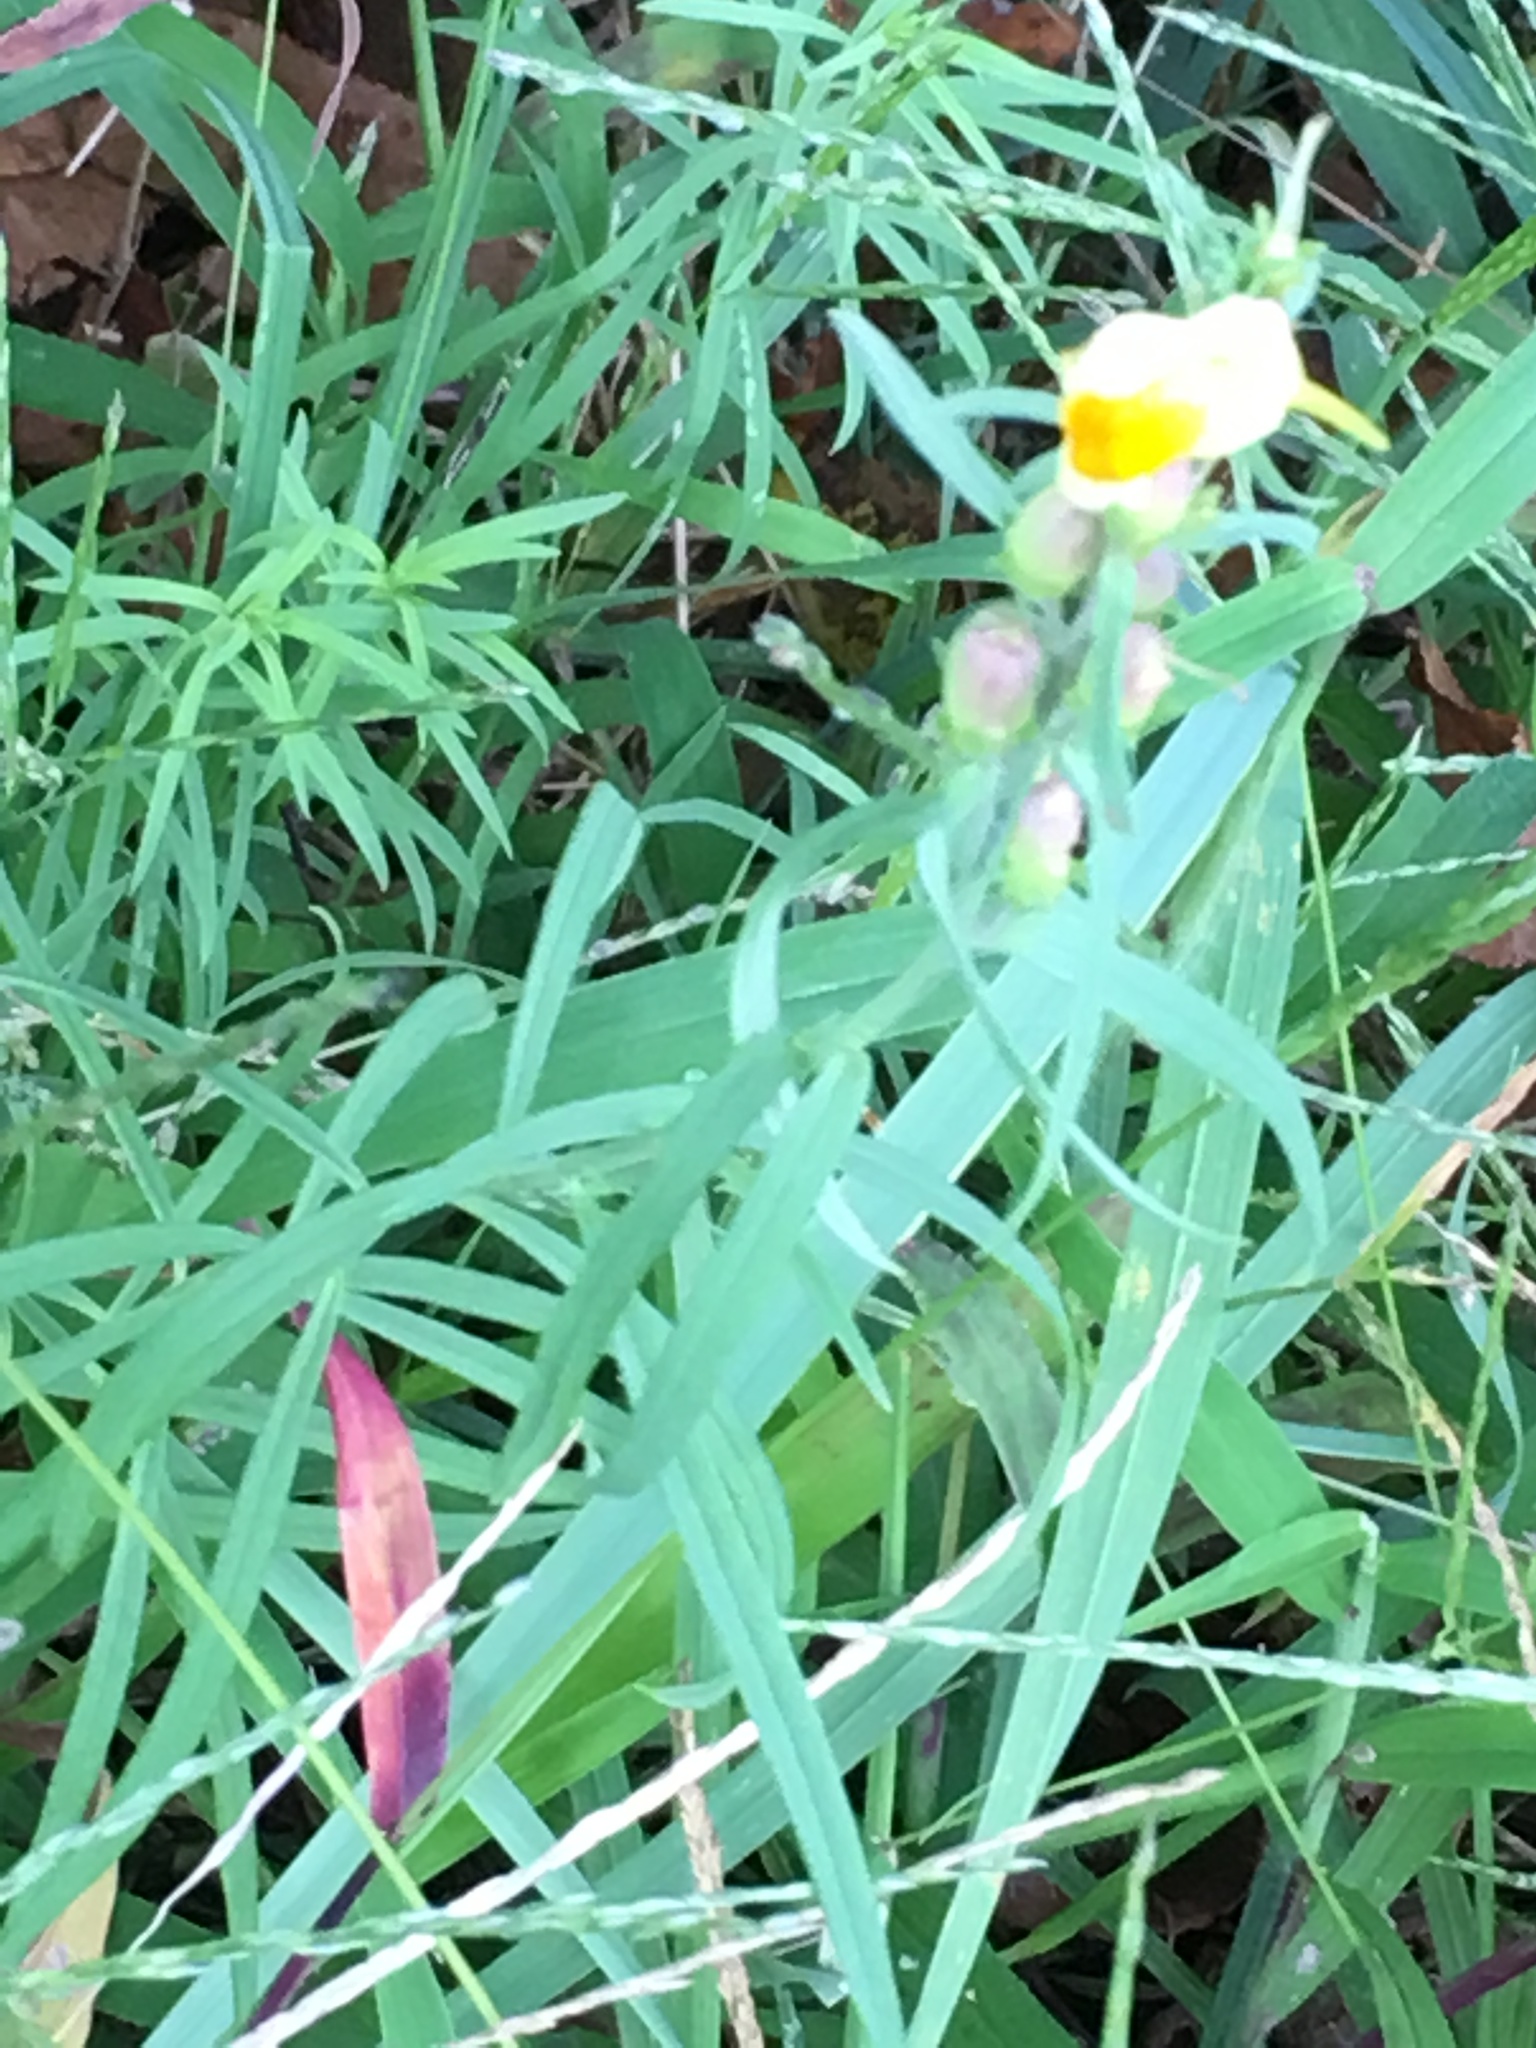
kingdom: Plantae
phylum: Tracheophyta
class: Magnoliopsida
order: Lamiales
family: Plantaginaceae
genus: Linaria
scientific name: Linaria vulgaris
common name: Butter and eggs
